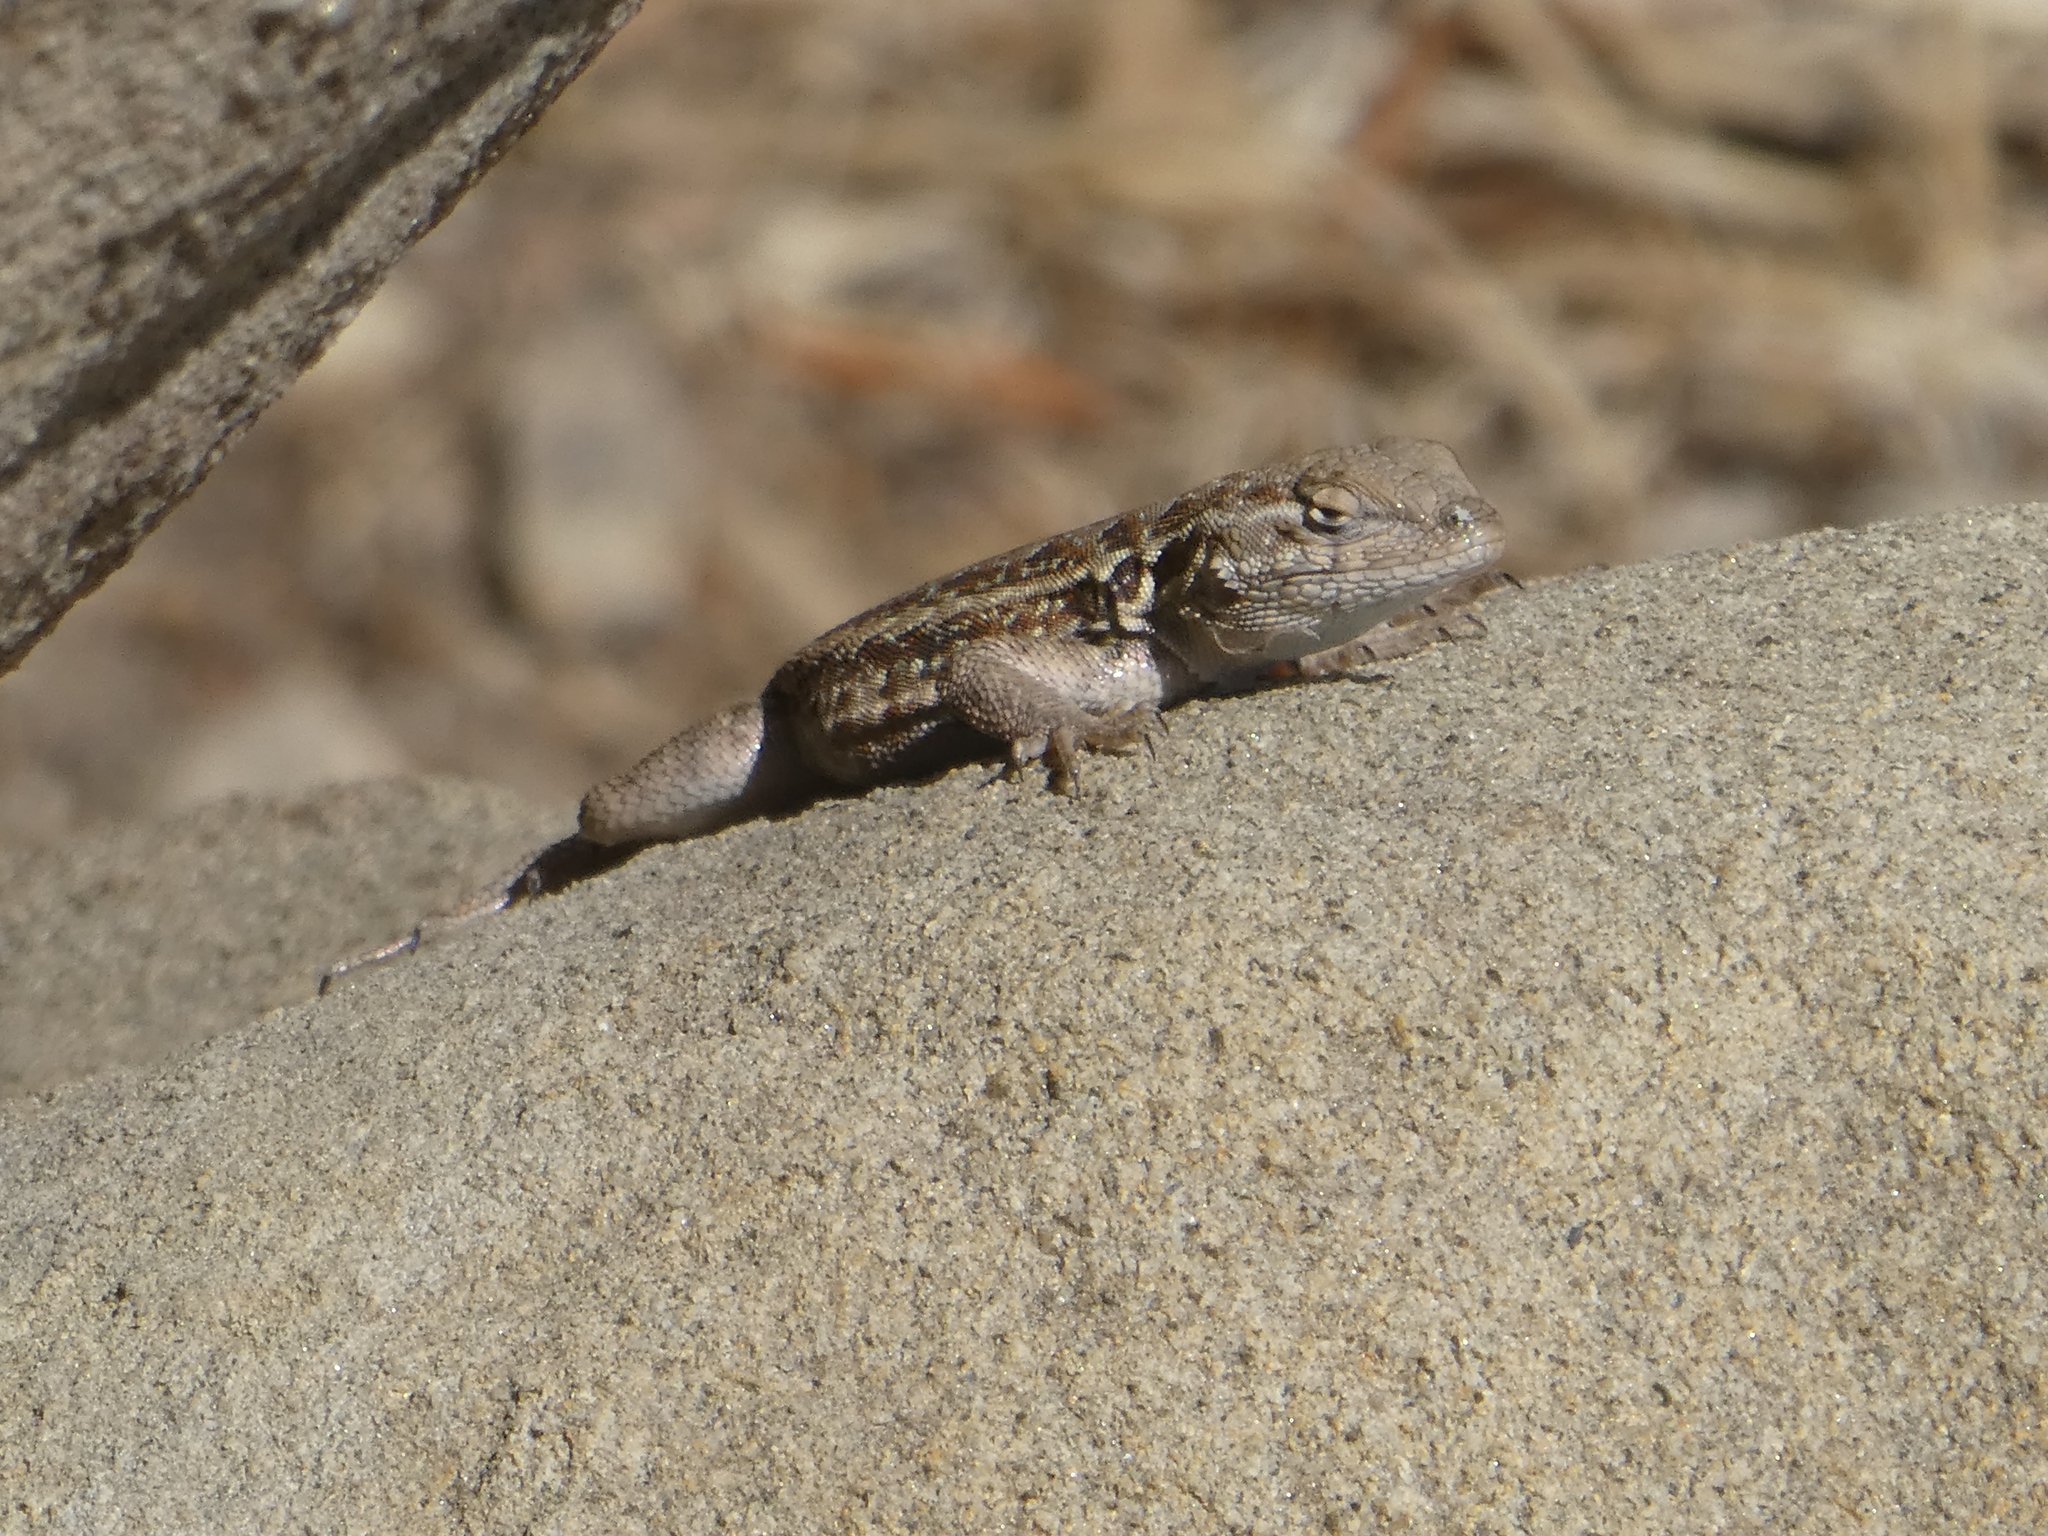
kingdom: Animalia
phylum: Chordata
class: Squamata
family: Phrynosomatidae
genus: Uta
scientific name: Uta stansburiana
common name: Side-blotched lizard
